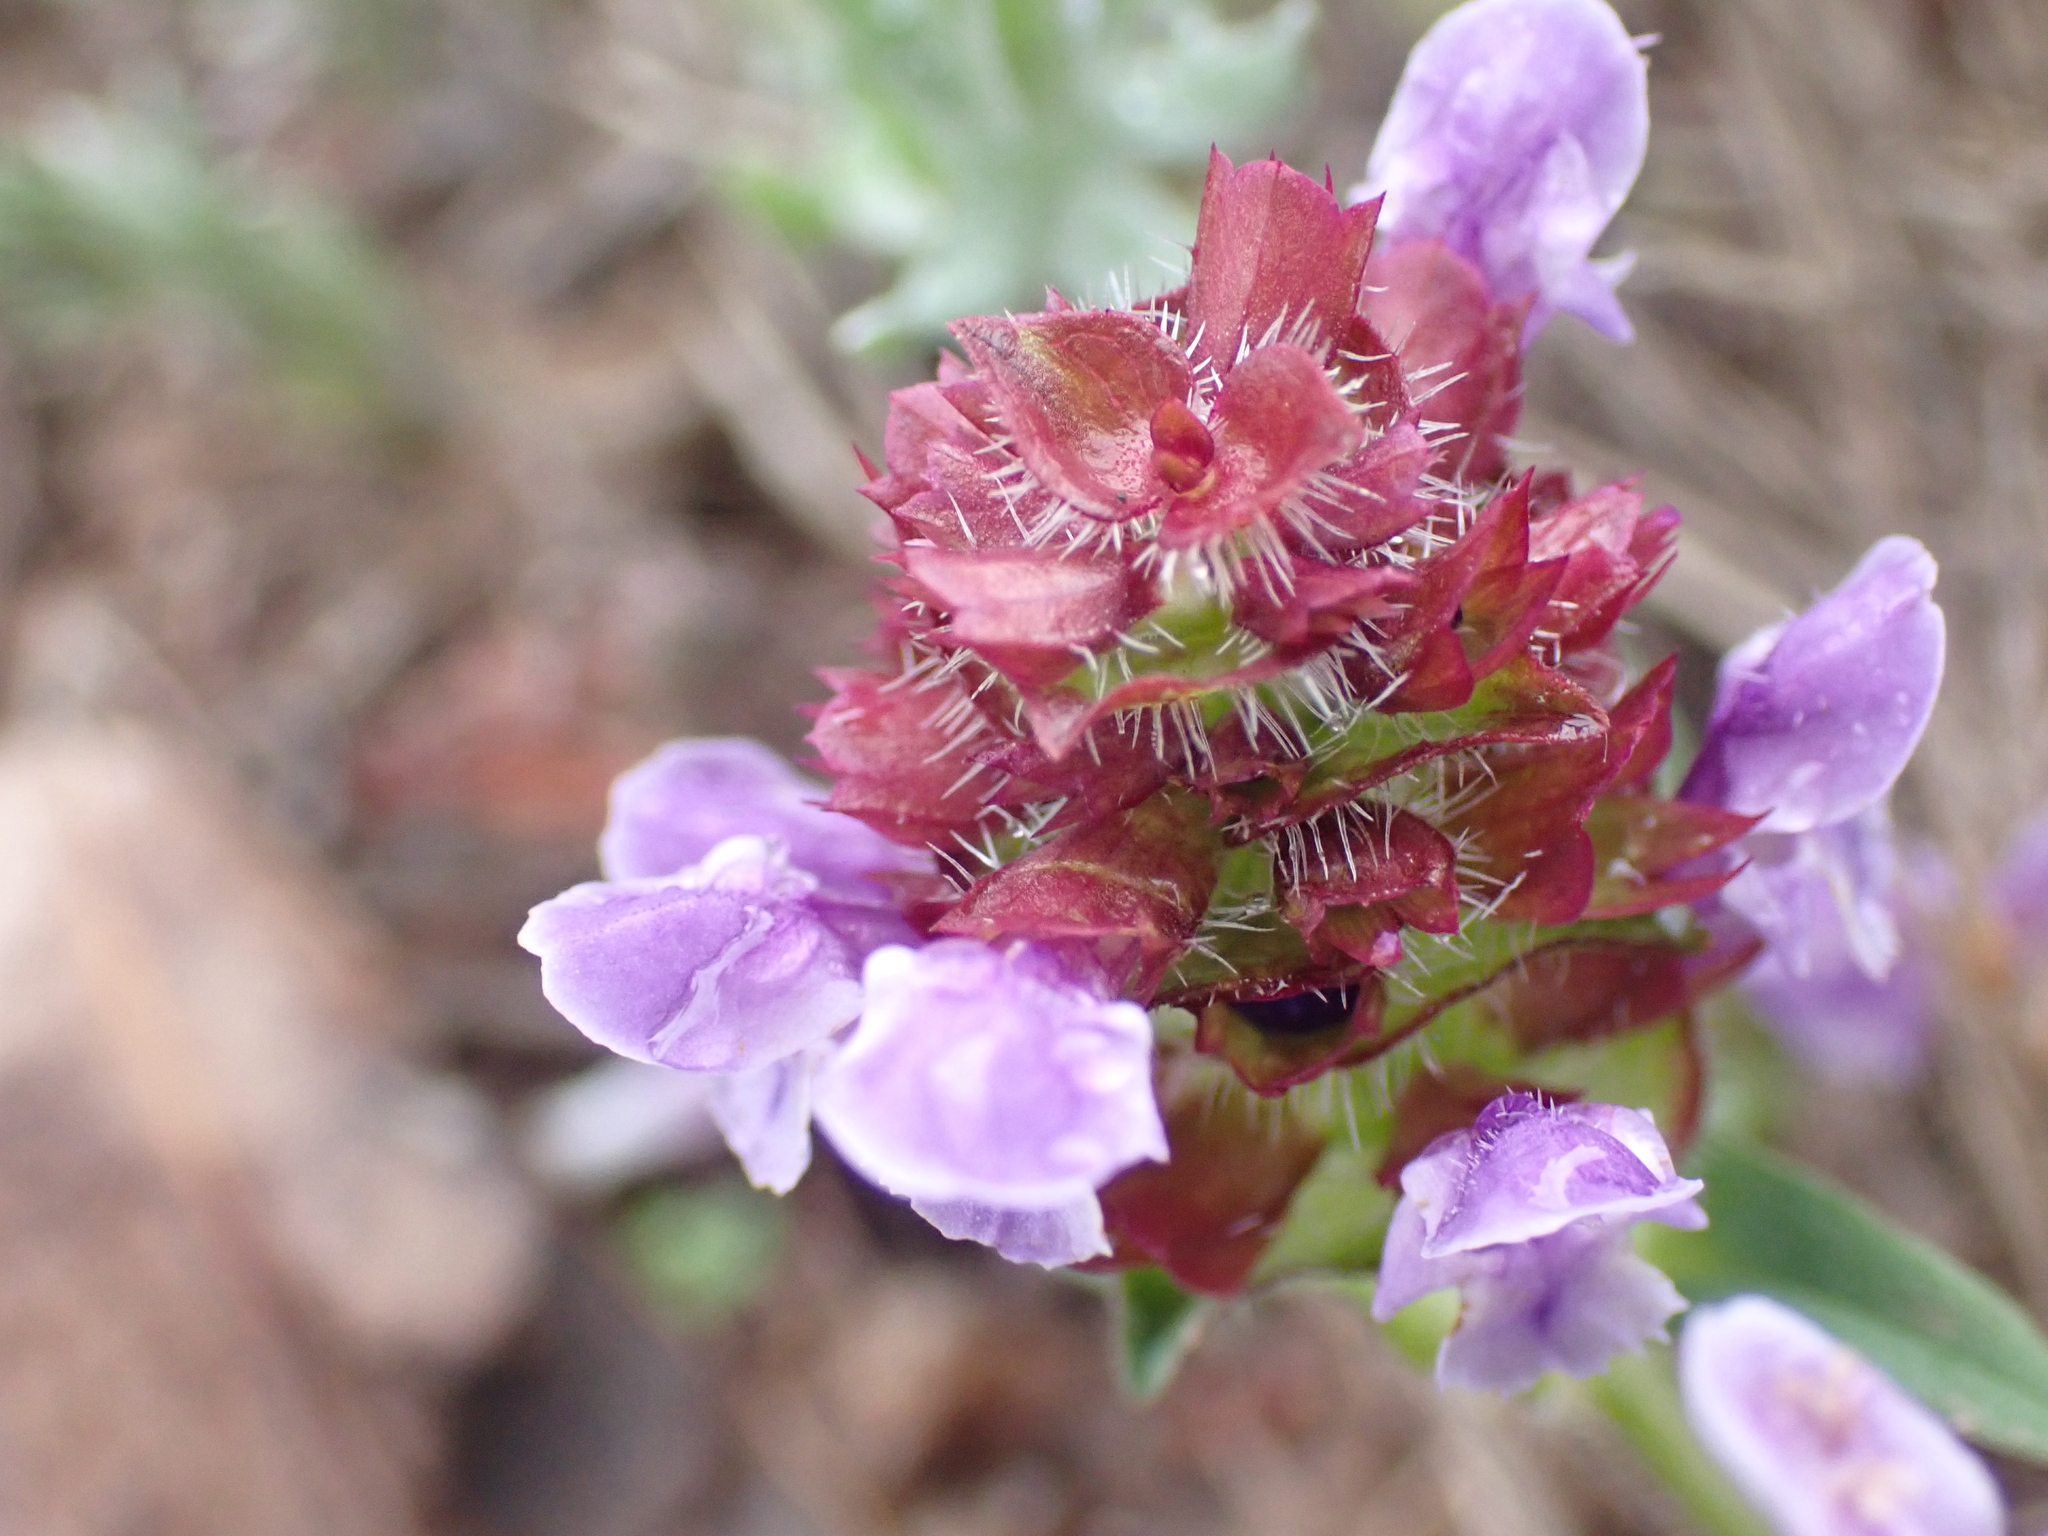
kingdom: Plantae
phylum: Tracheophyta
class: Magnoliopsida
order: Lamiales
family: Lamiaceae
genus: Prunella
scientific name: Prunella vulgaris
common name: Heal-all
